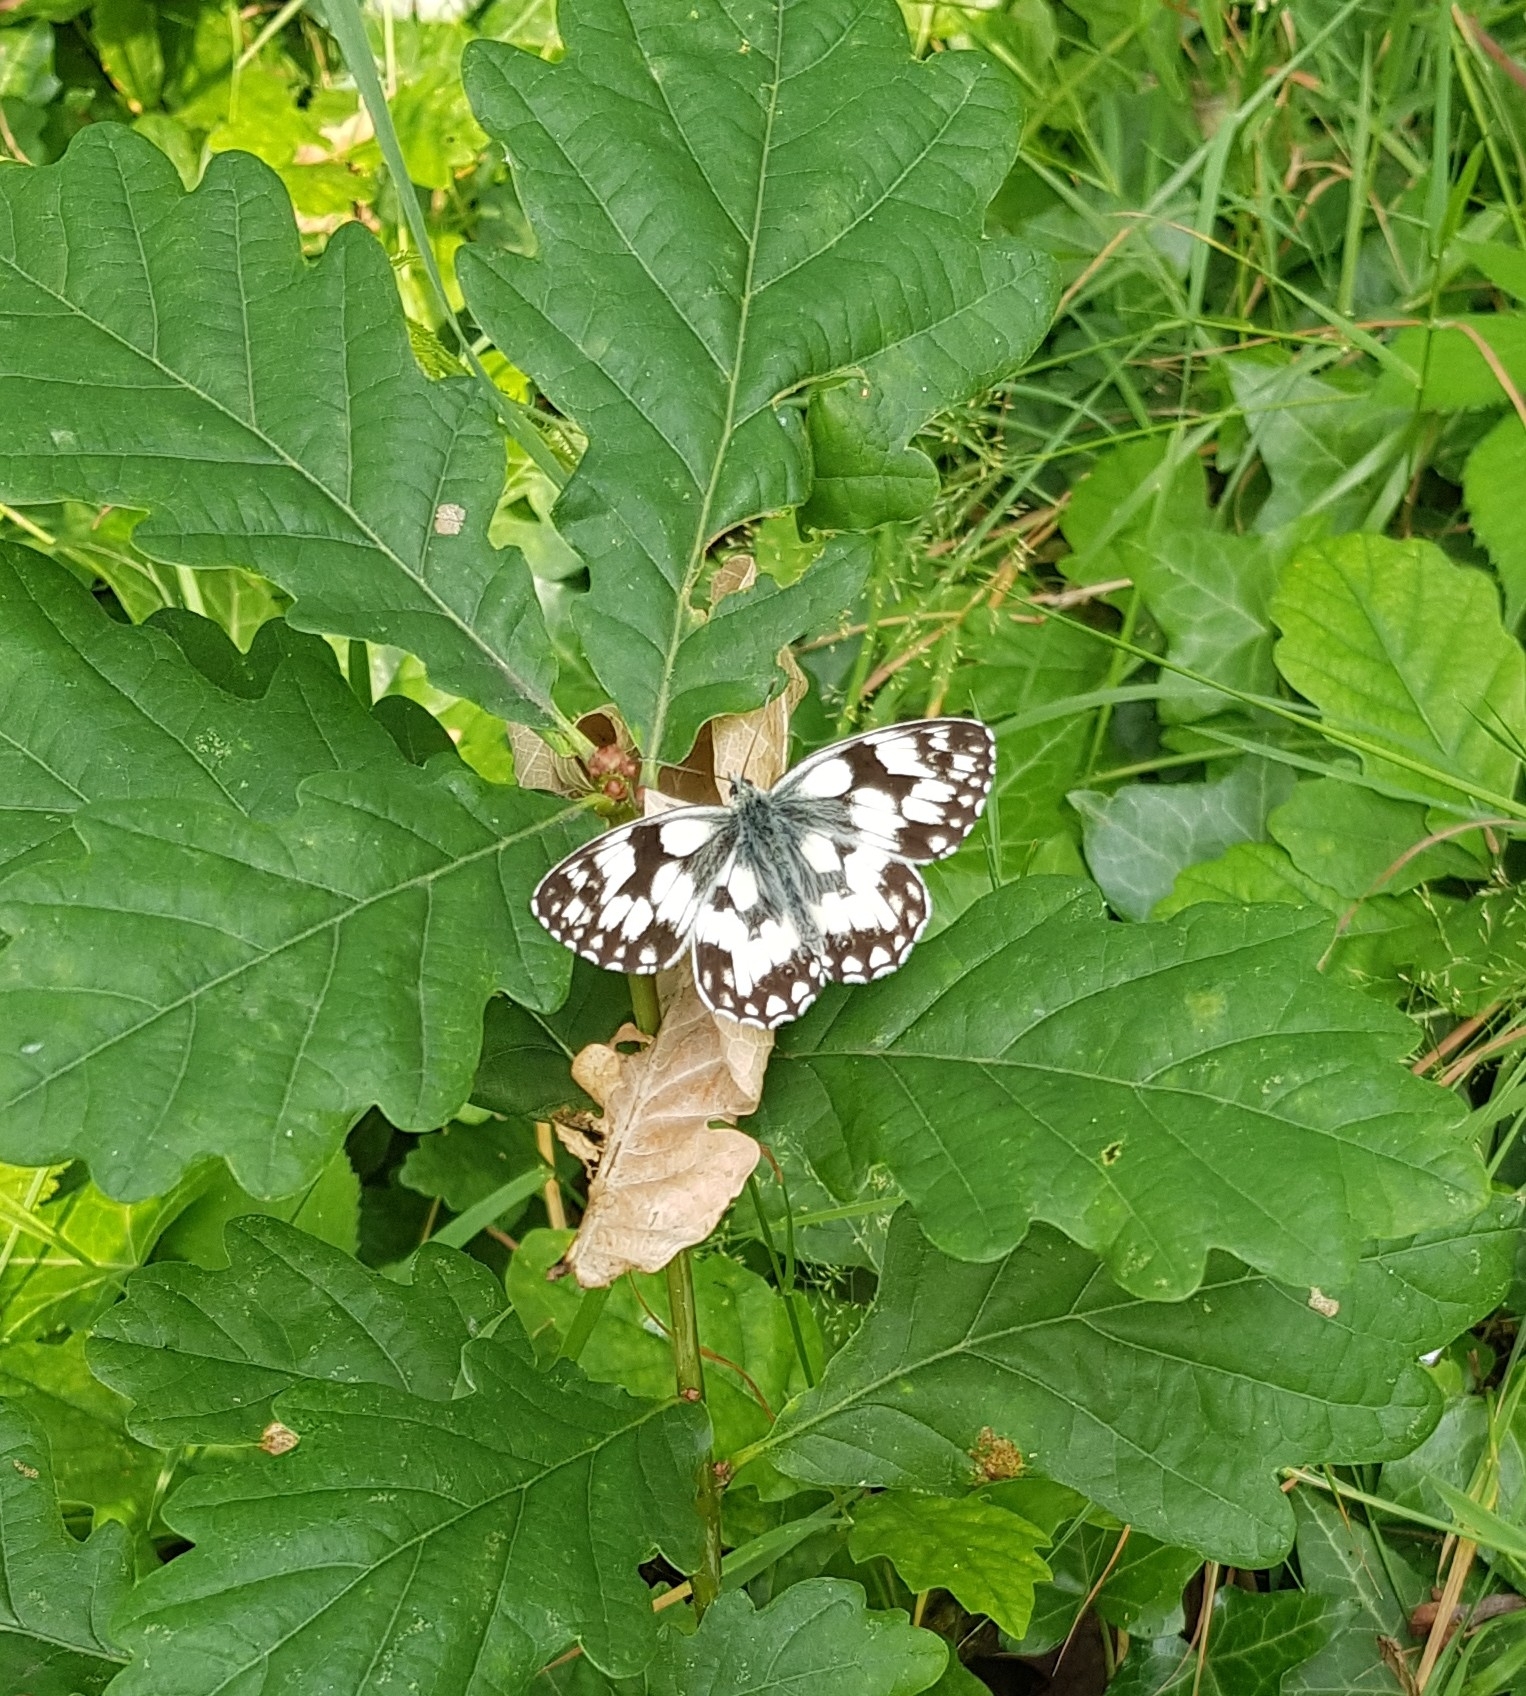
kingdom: Animalia
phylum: Arthropoda
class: Insecta
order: Lepidoptera
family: Nymphalidae
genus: Melanargia
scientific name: Melanargia galathea
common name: Marbled white
